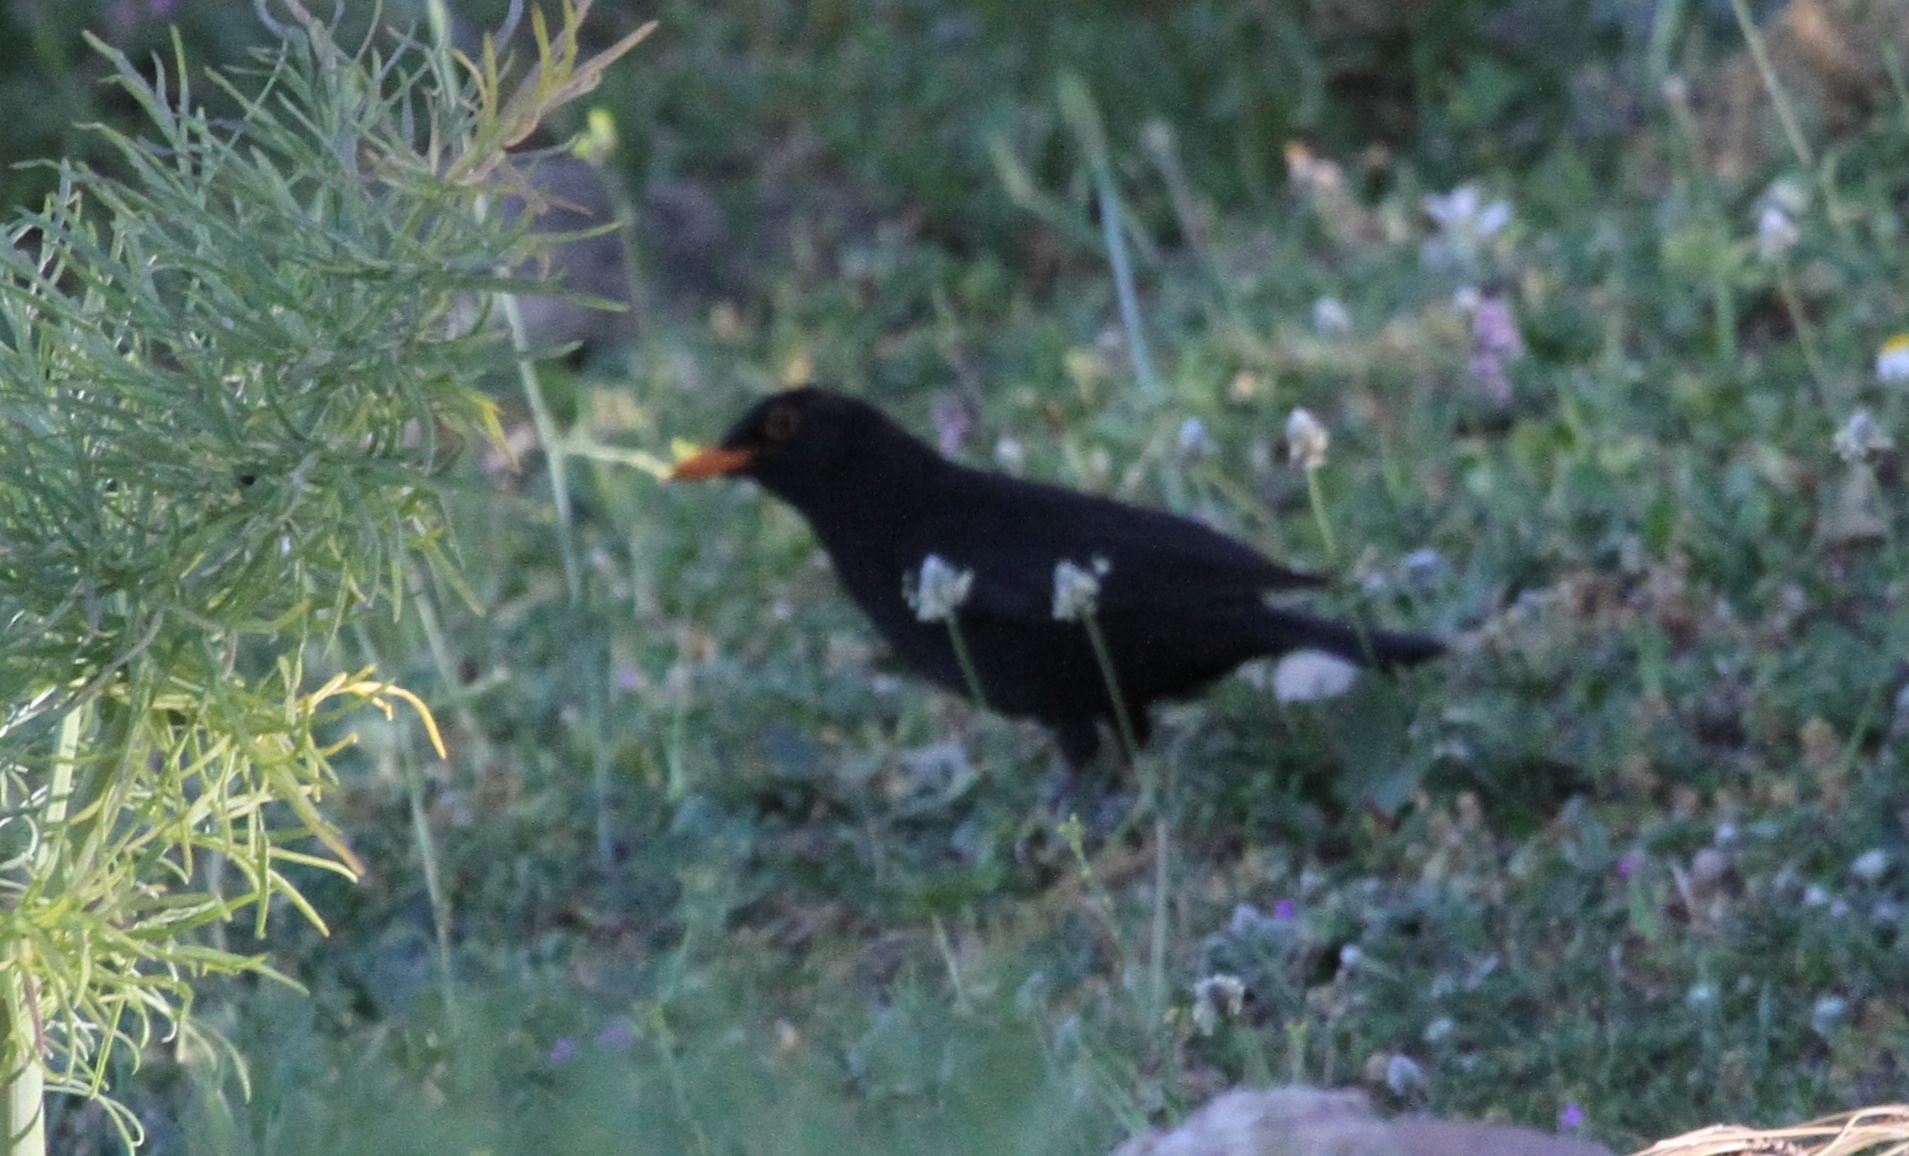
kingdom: Animalia
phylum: Chordata
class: Aves
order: Passeriformes
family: Turdidae
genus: Turdus
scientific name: Turdus merula
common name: Common blackbird
